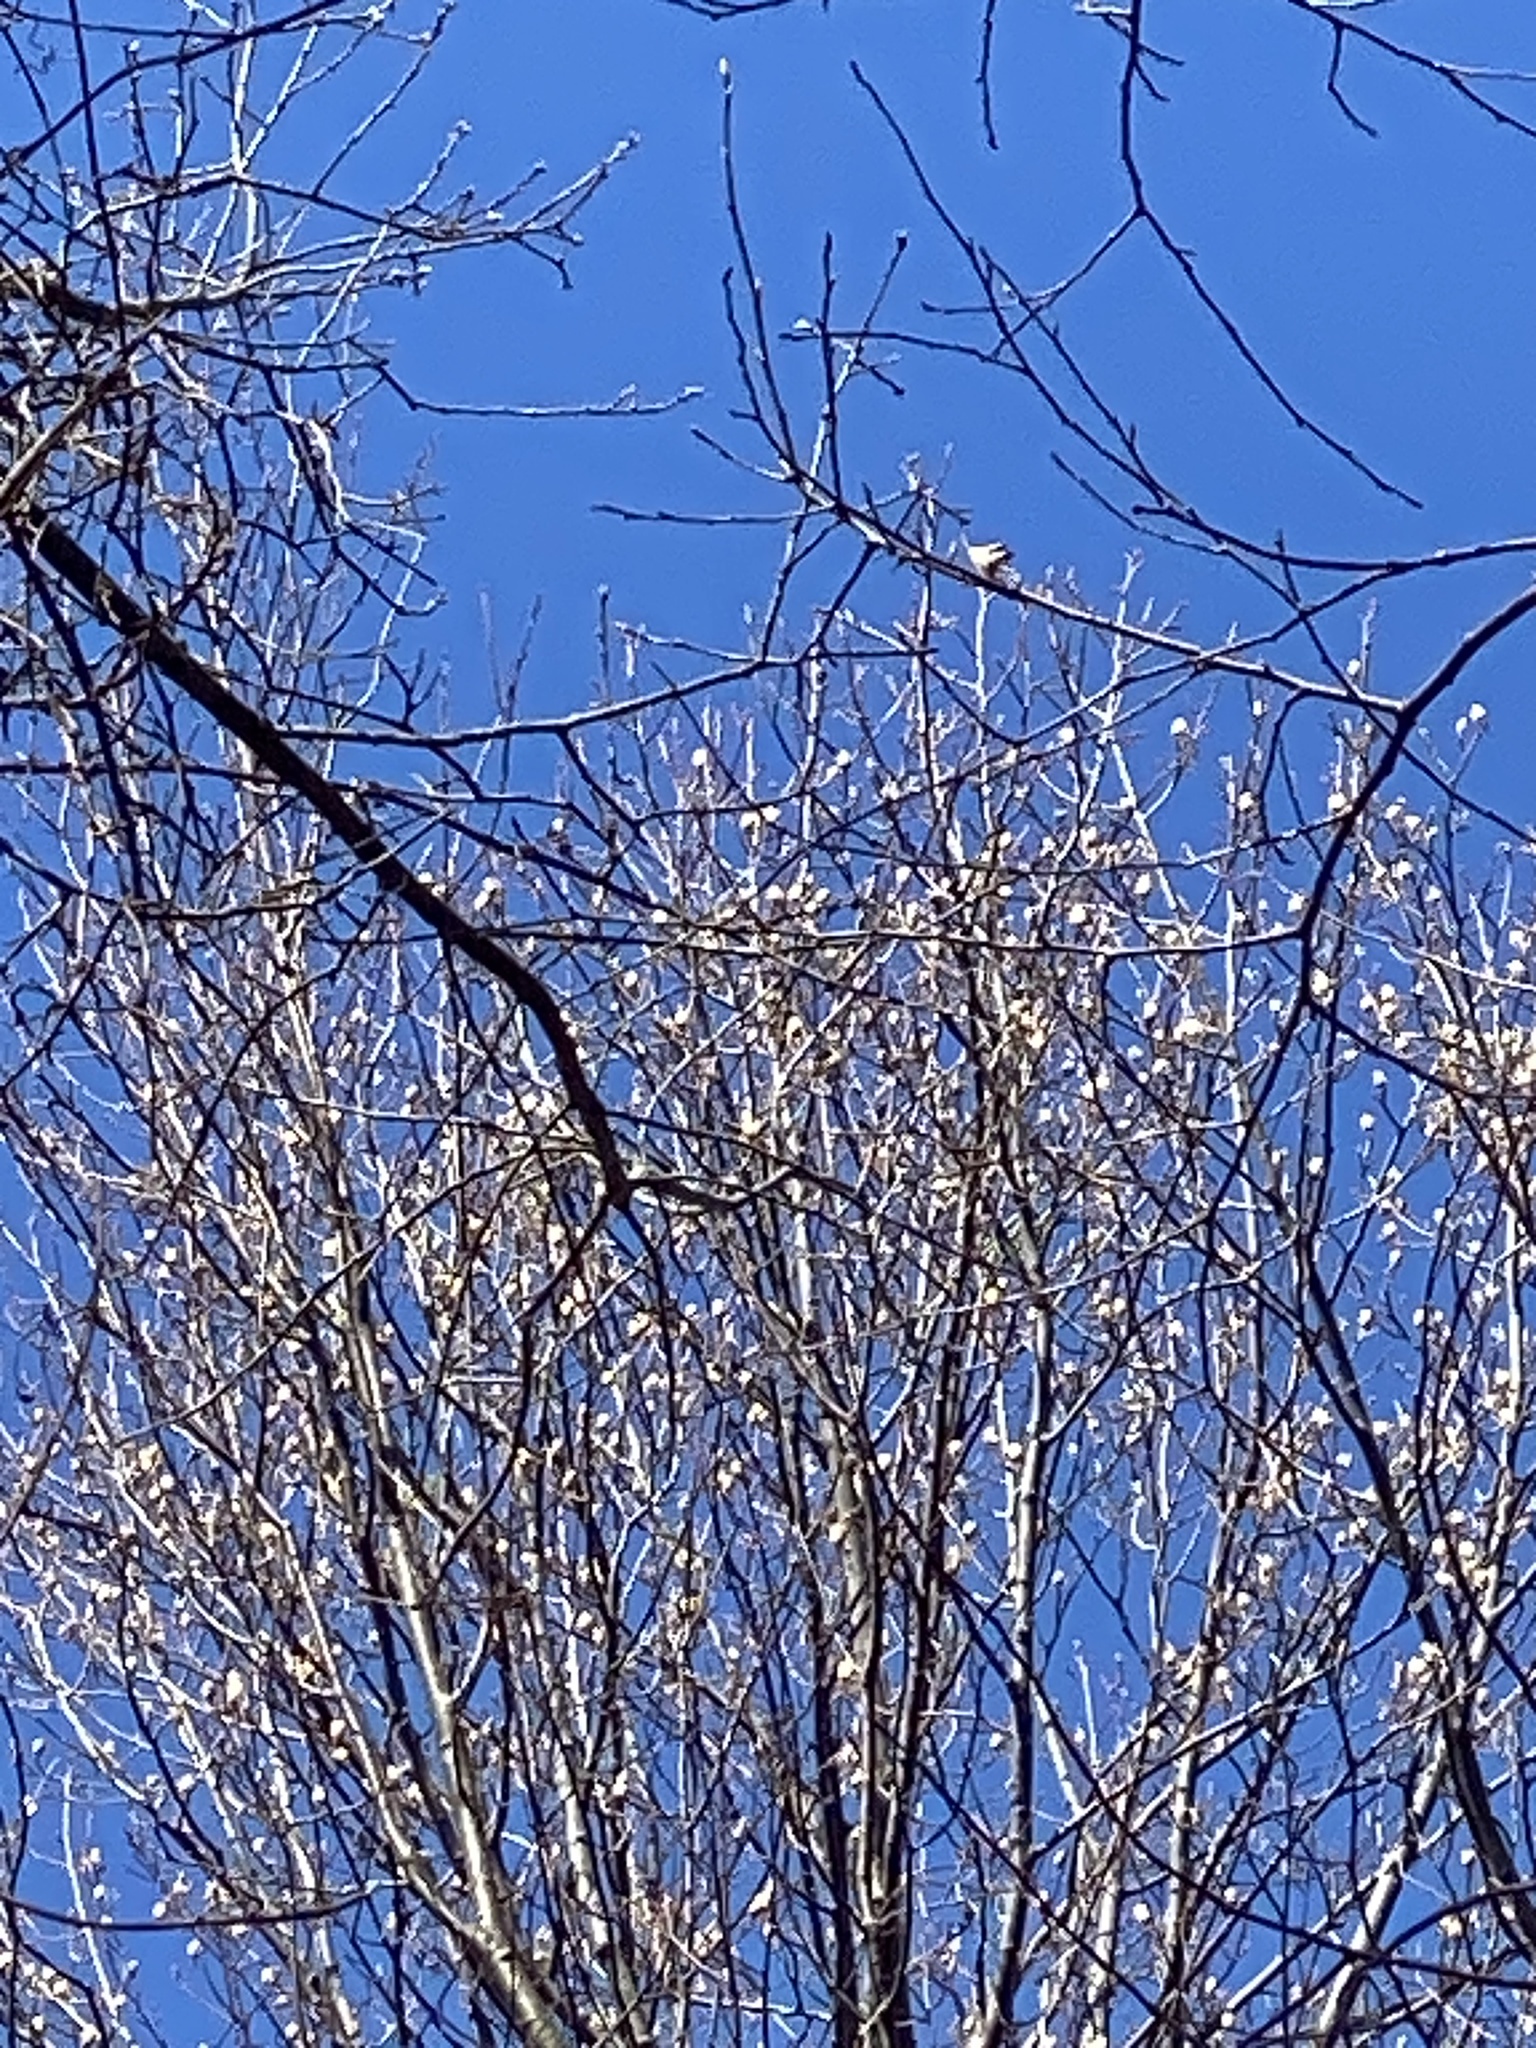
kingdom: Plantae
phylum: Tracheophyta
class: Magnoliopsida
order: Magnoliales
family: Magnoliaceae
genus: Liriodendron
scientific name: Liriodendron tulipifera
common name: Tulip tree
